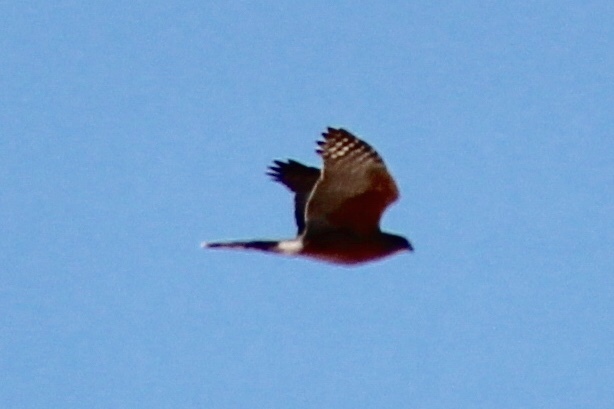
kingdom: Animalia
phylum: Chordata
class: Aves
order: Accipitriformes
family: Accipitridae
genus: Accipiter
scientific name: Accipiter cooperii
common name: Cooper's hawk
